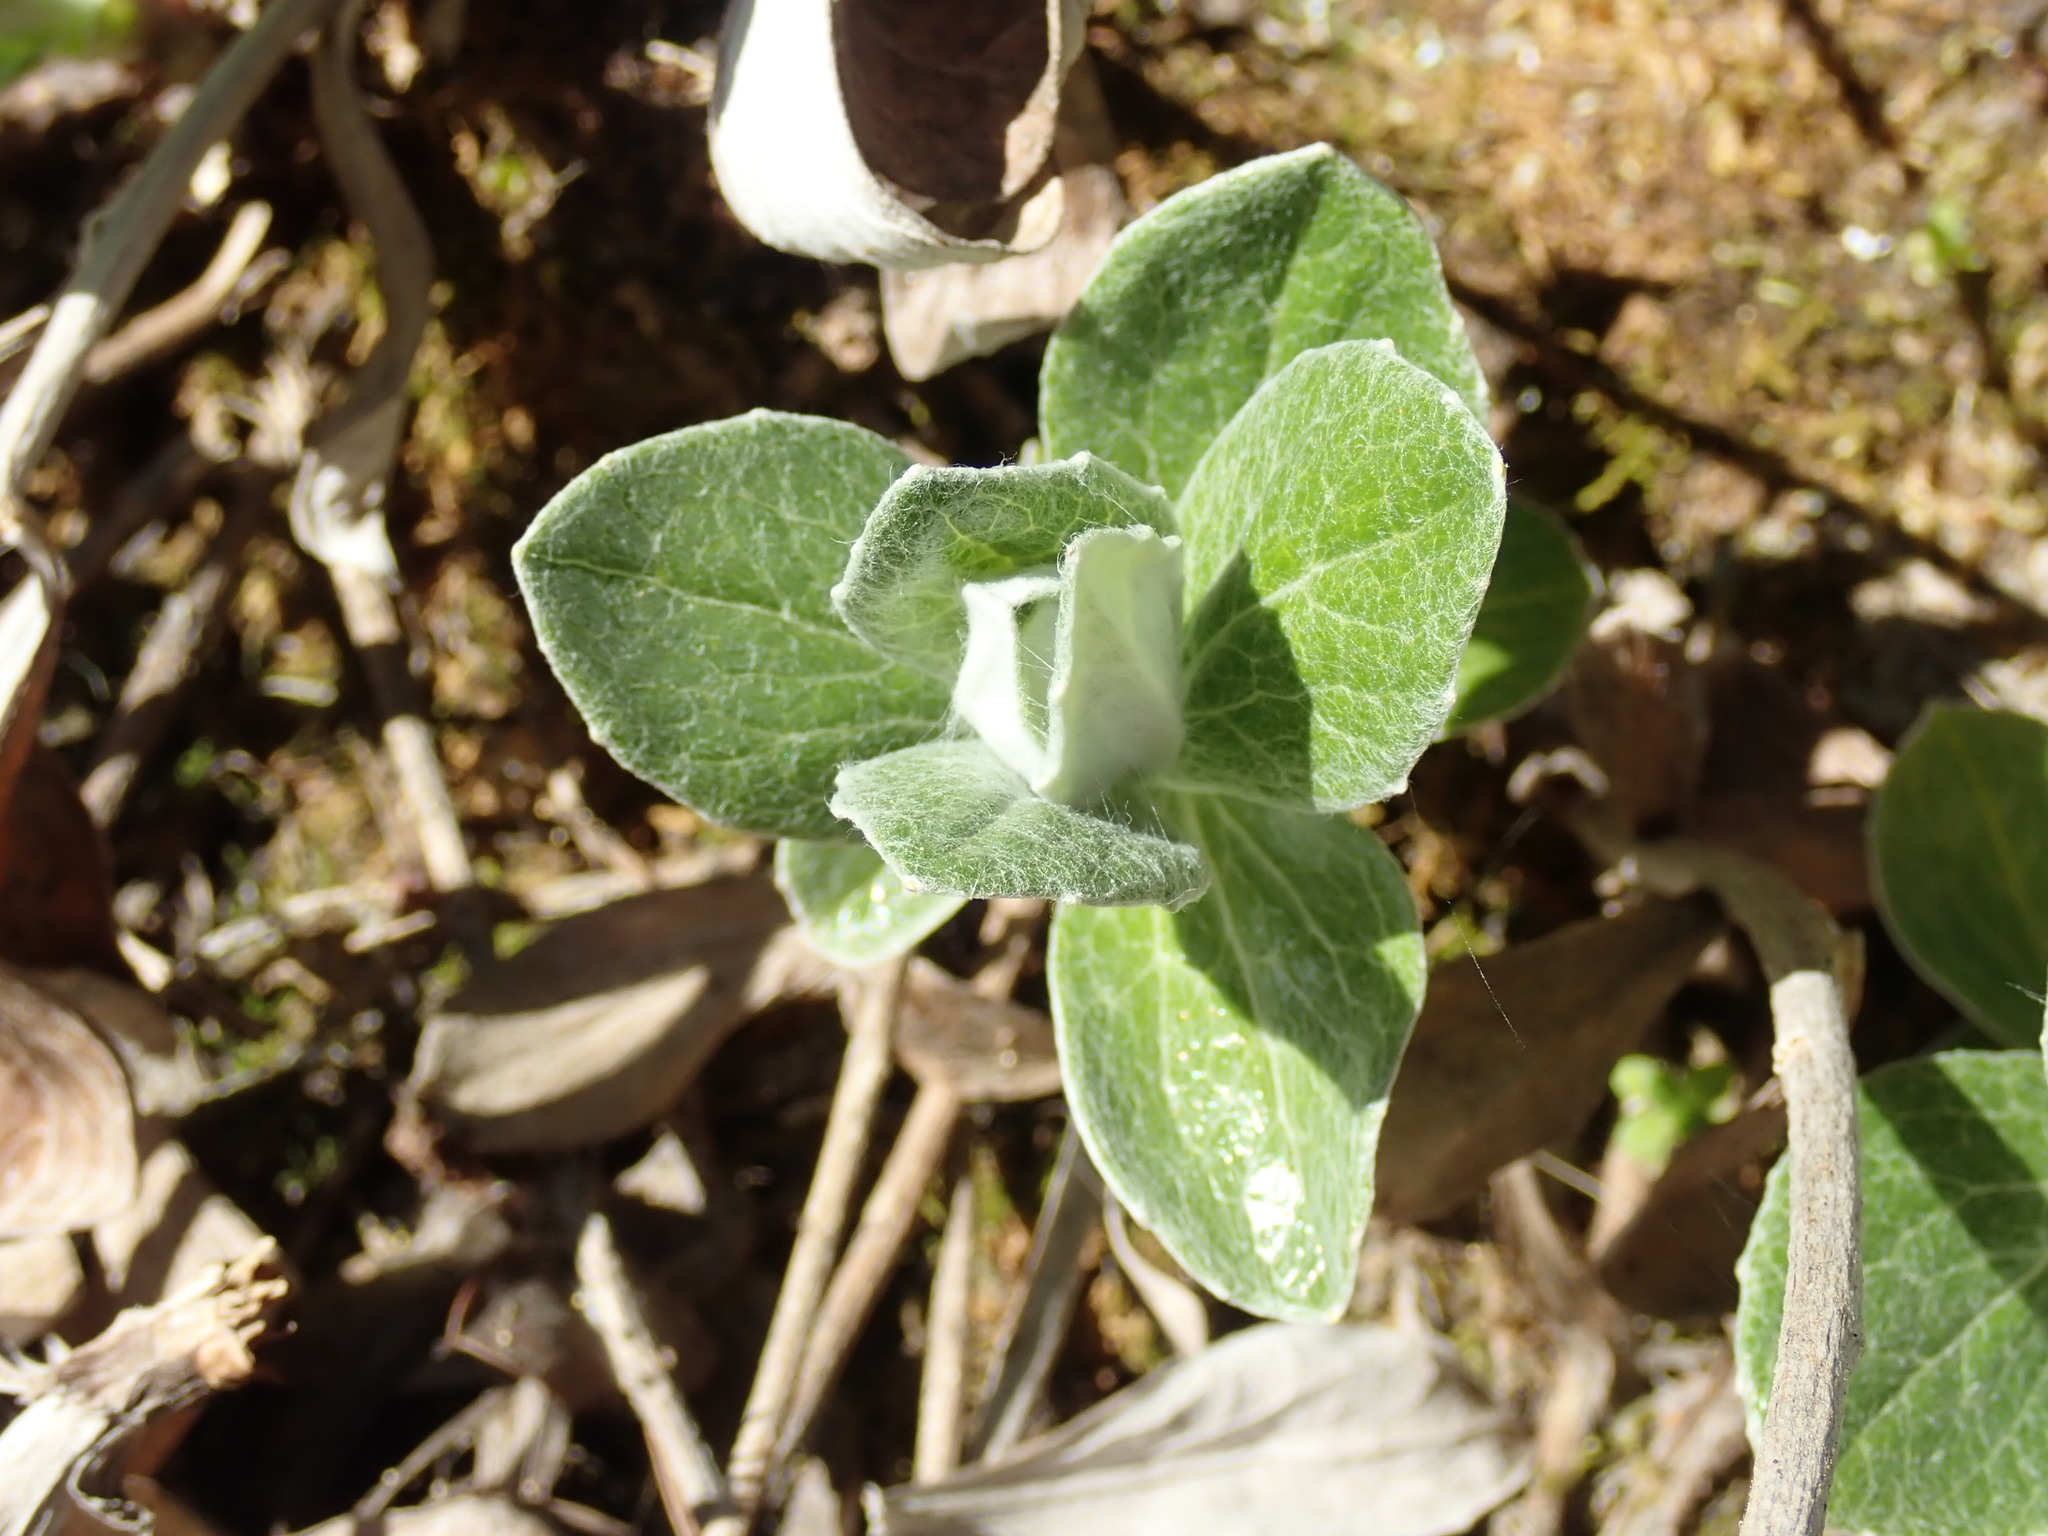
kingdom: Plantae
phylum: Tracheophyta
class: Magnoliopsida
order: Asterales
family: Asteraceae
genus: Luina
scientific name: Luina hypoleuca
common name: Little-leaved luina
